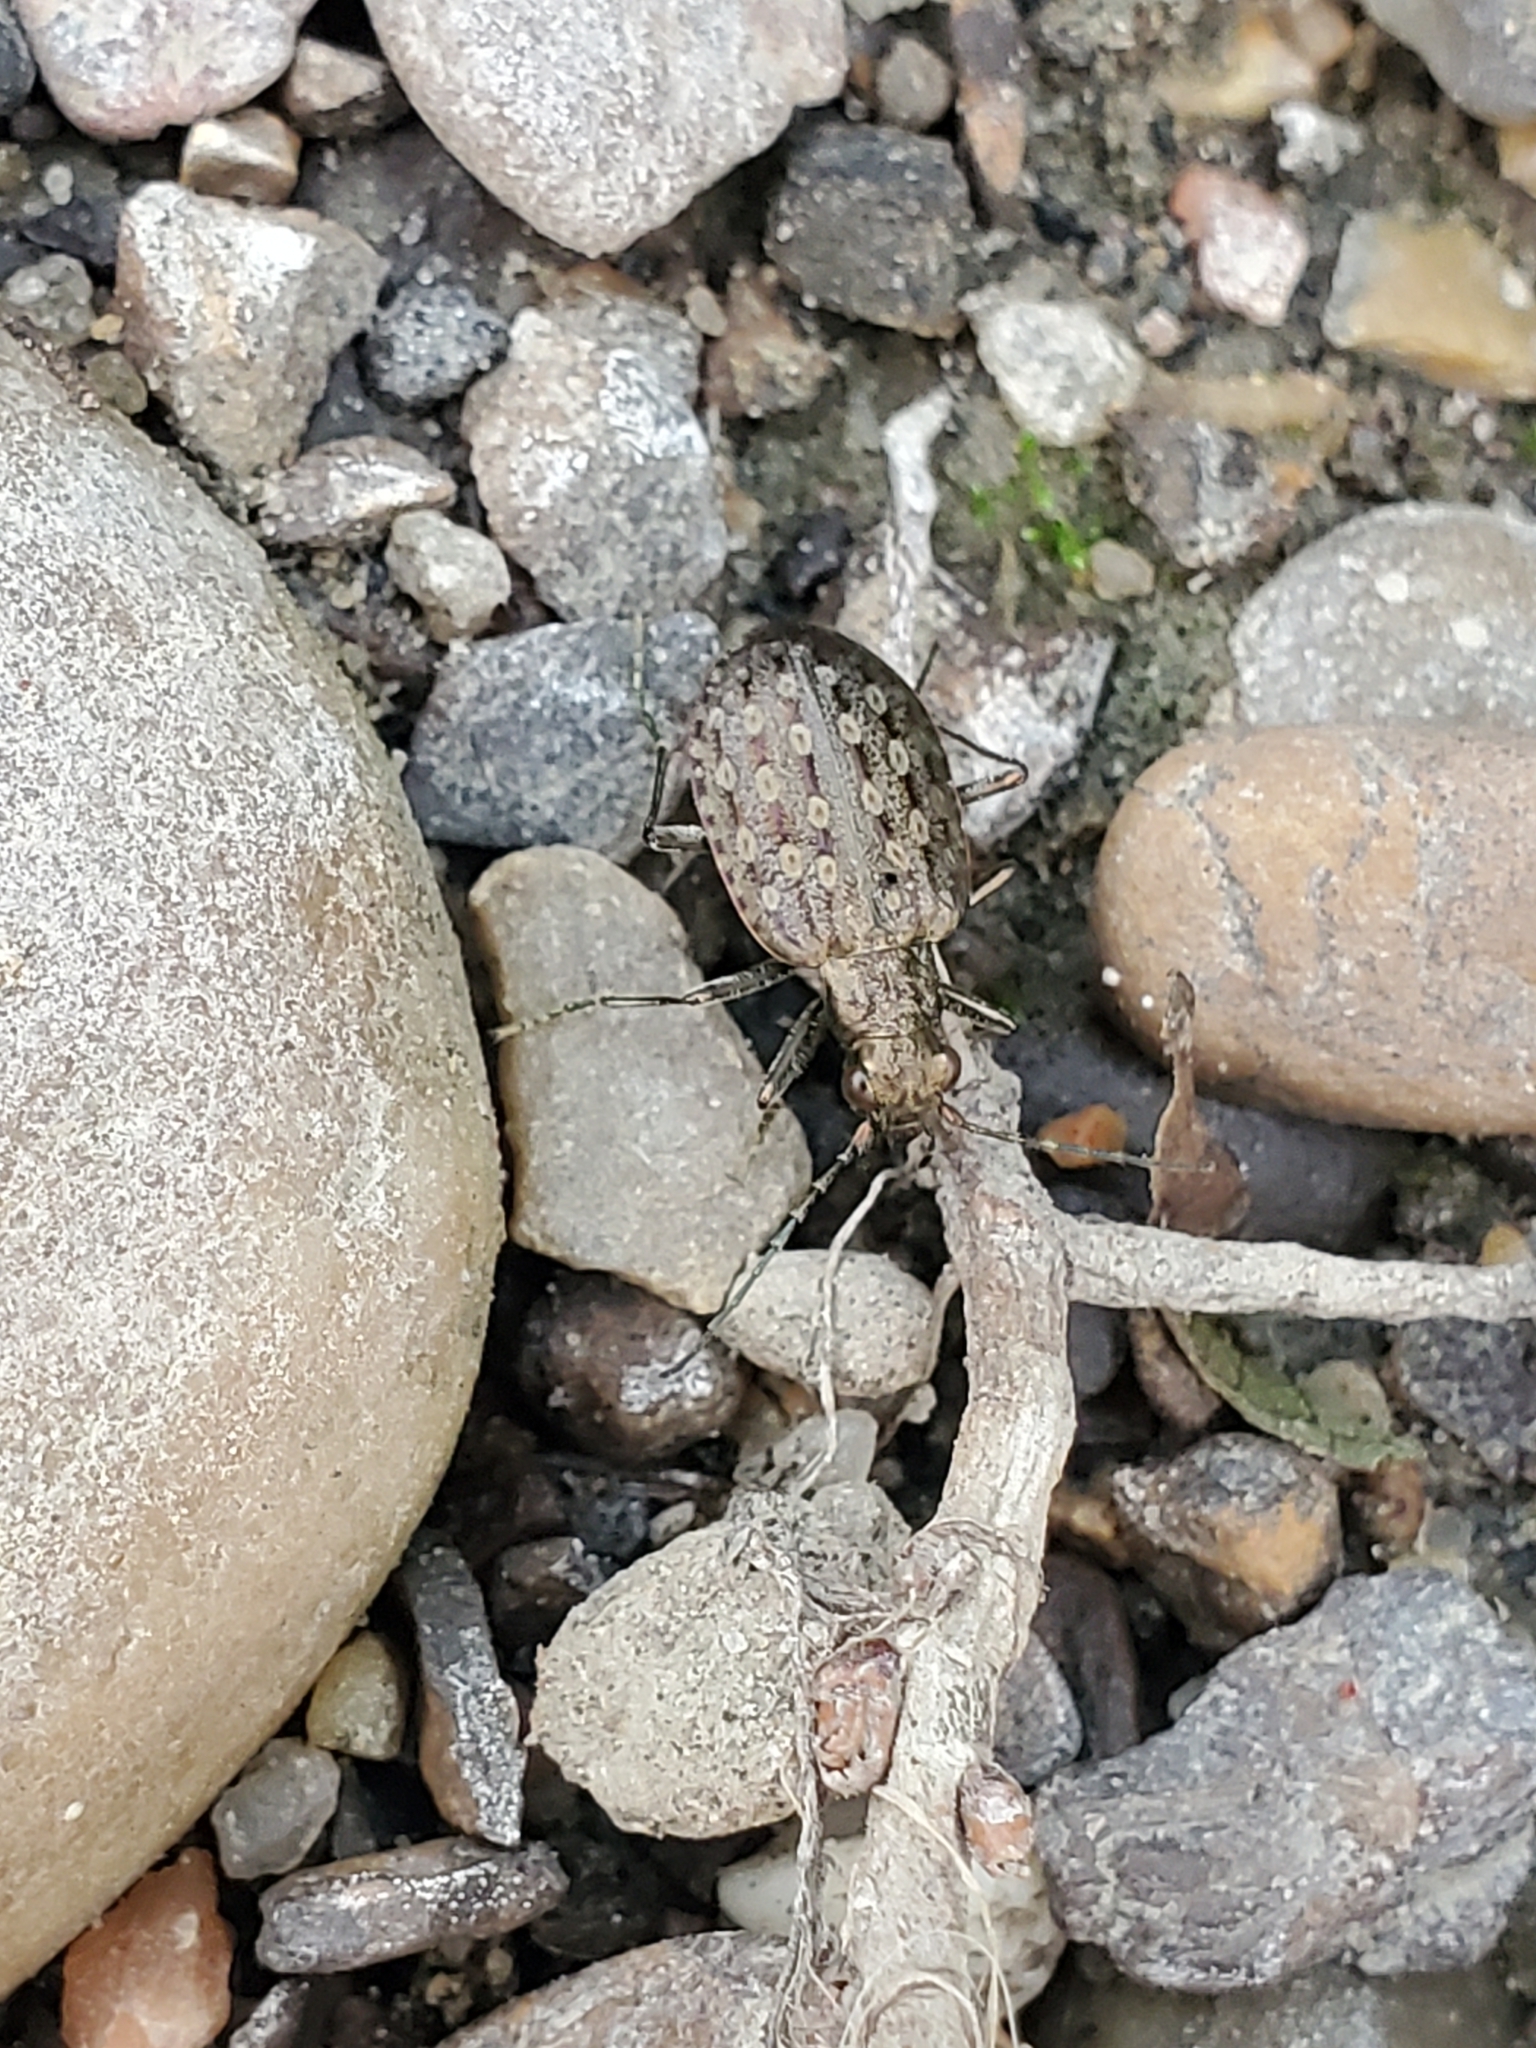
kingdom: Animalia
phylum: Arthropoda
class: Insecta
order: Coleoptera
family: Carabidae
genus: Opisthius
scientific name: Opisthius richardsoni
